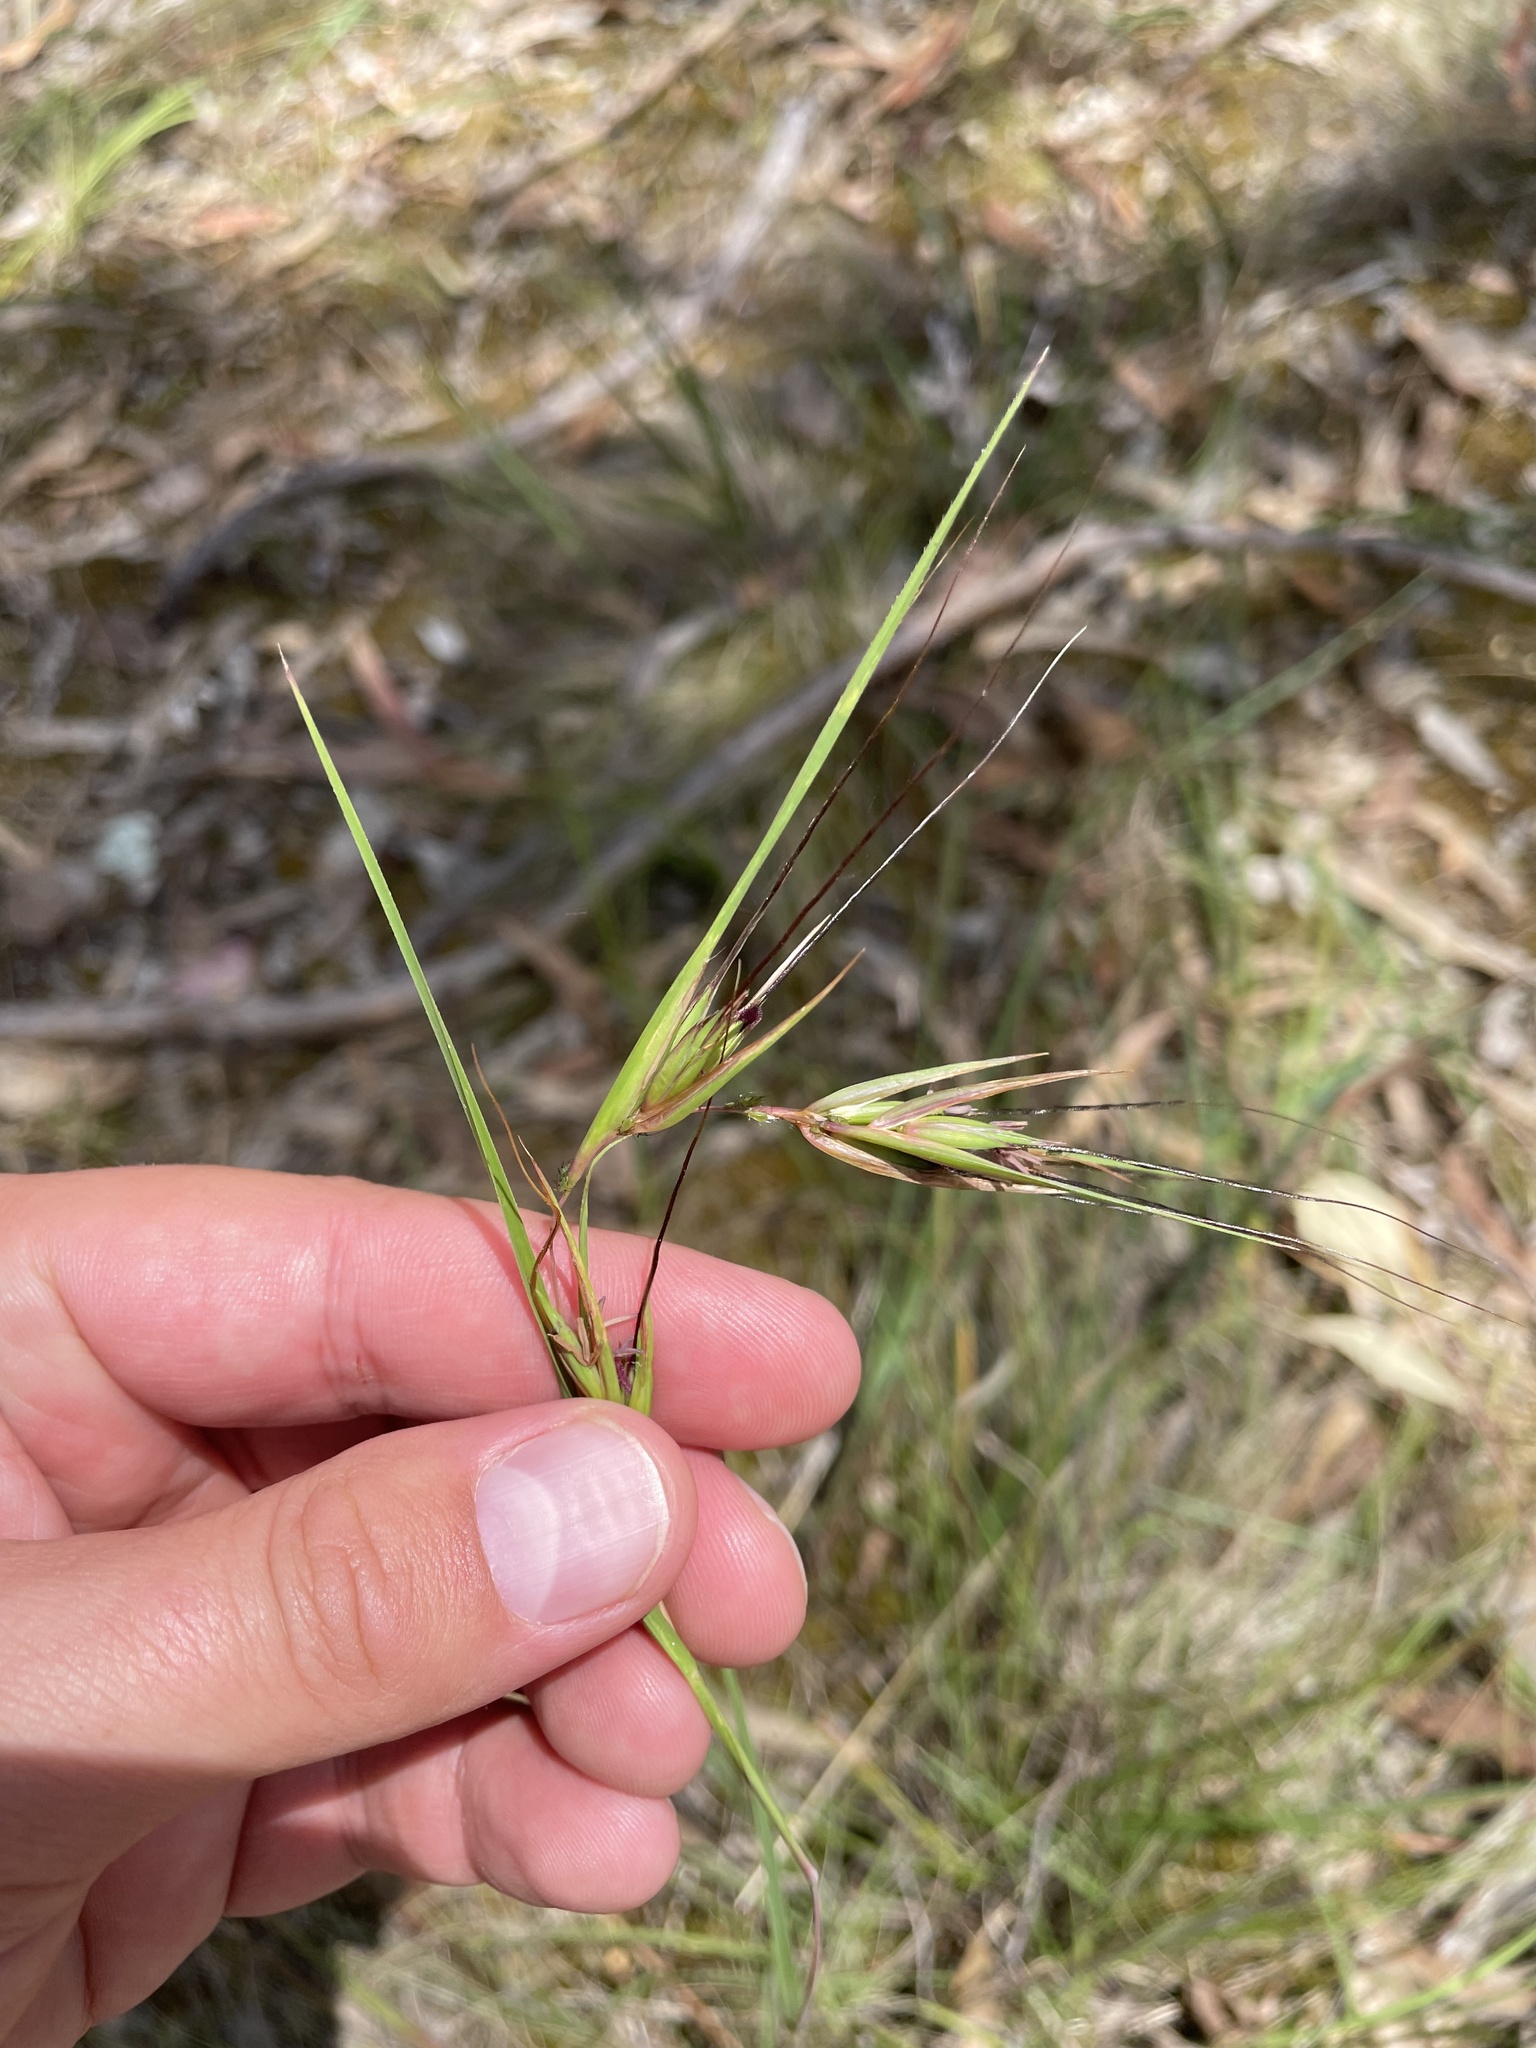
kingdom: Plantae
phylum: Tracheophyta
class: Liliopsida
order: Poales
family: Poaceae
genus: Themeda
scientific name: Themeda triandra
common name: Kangaroo grass
